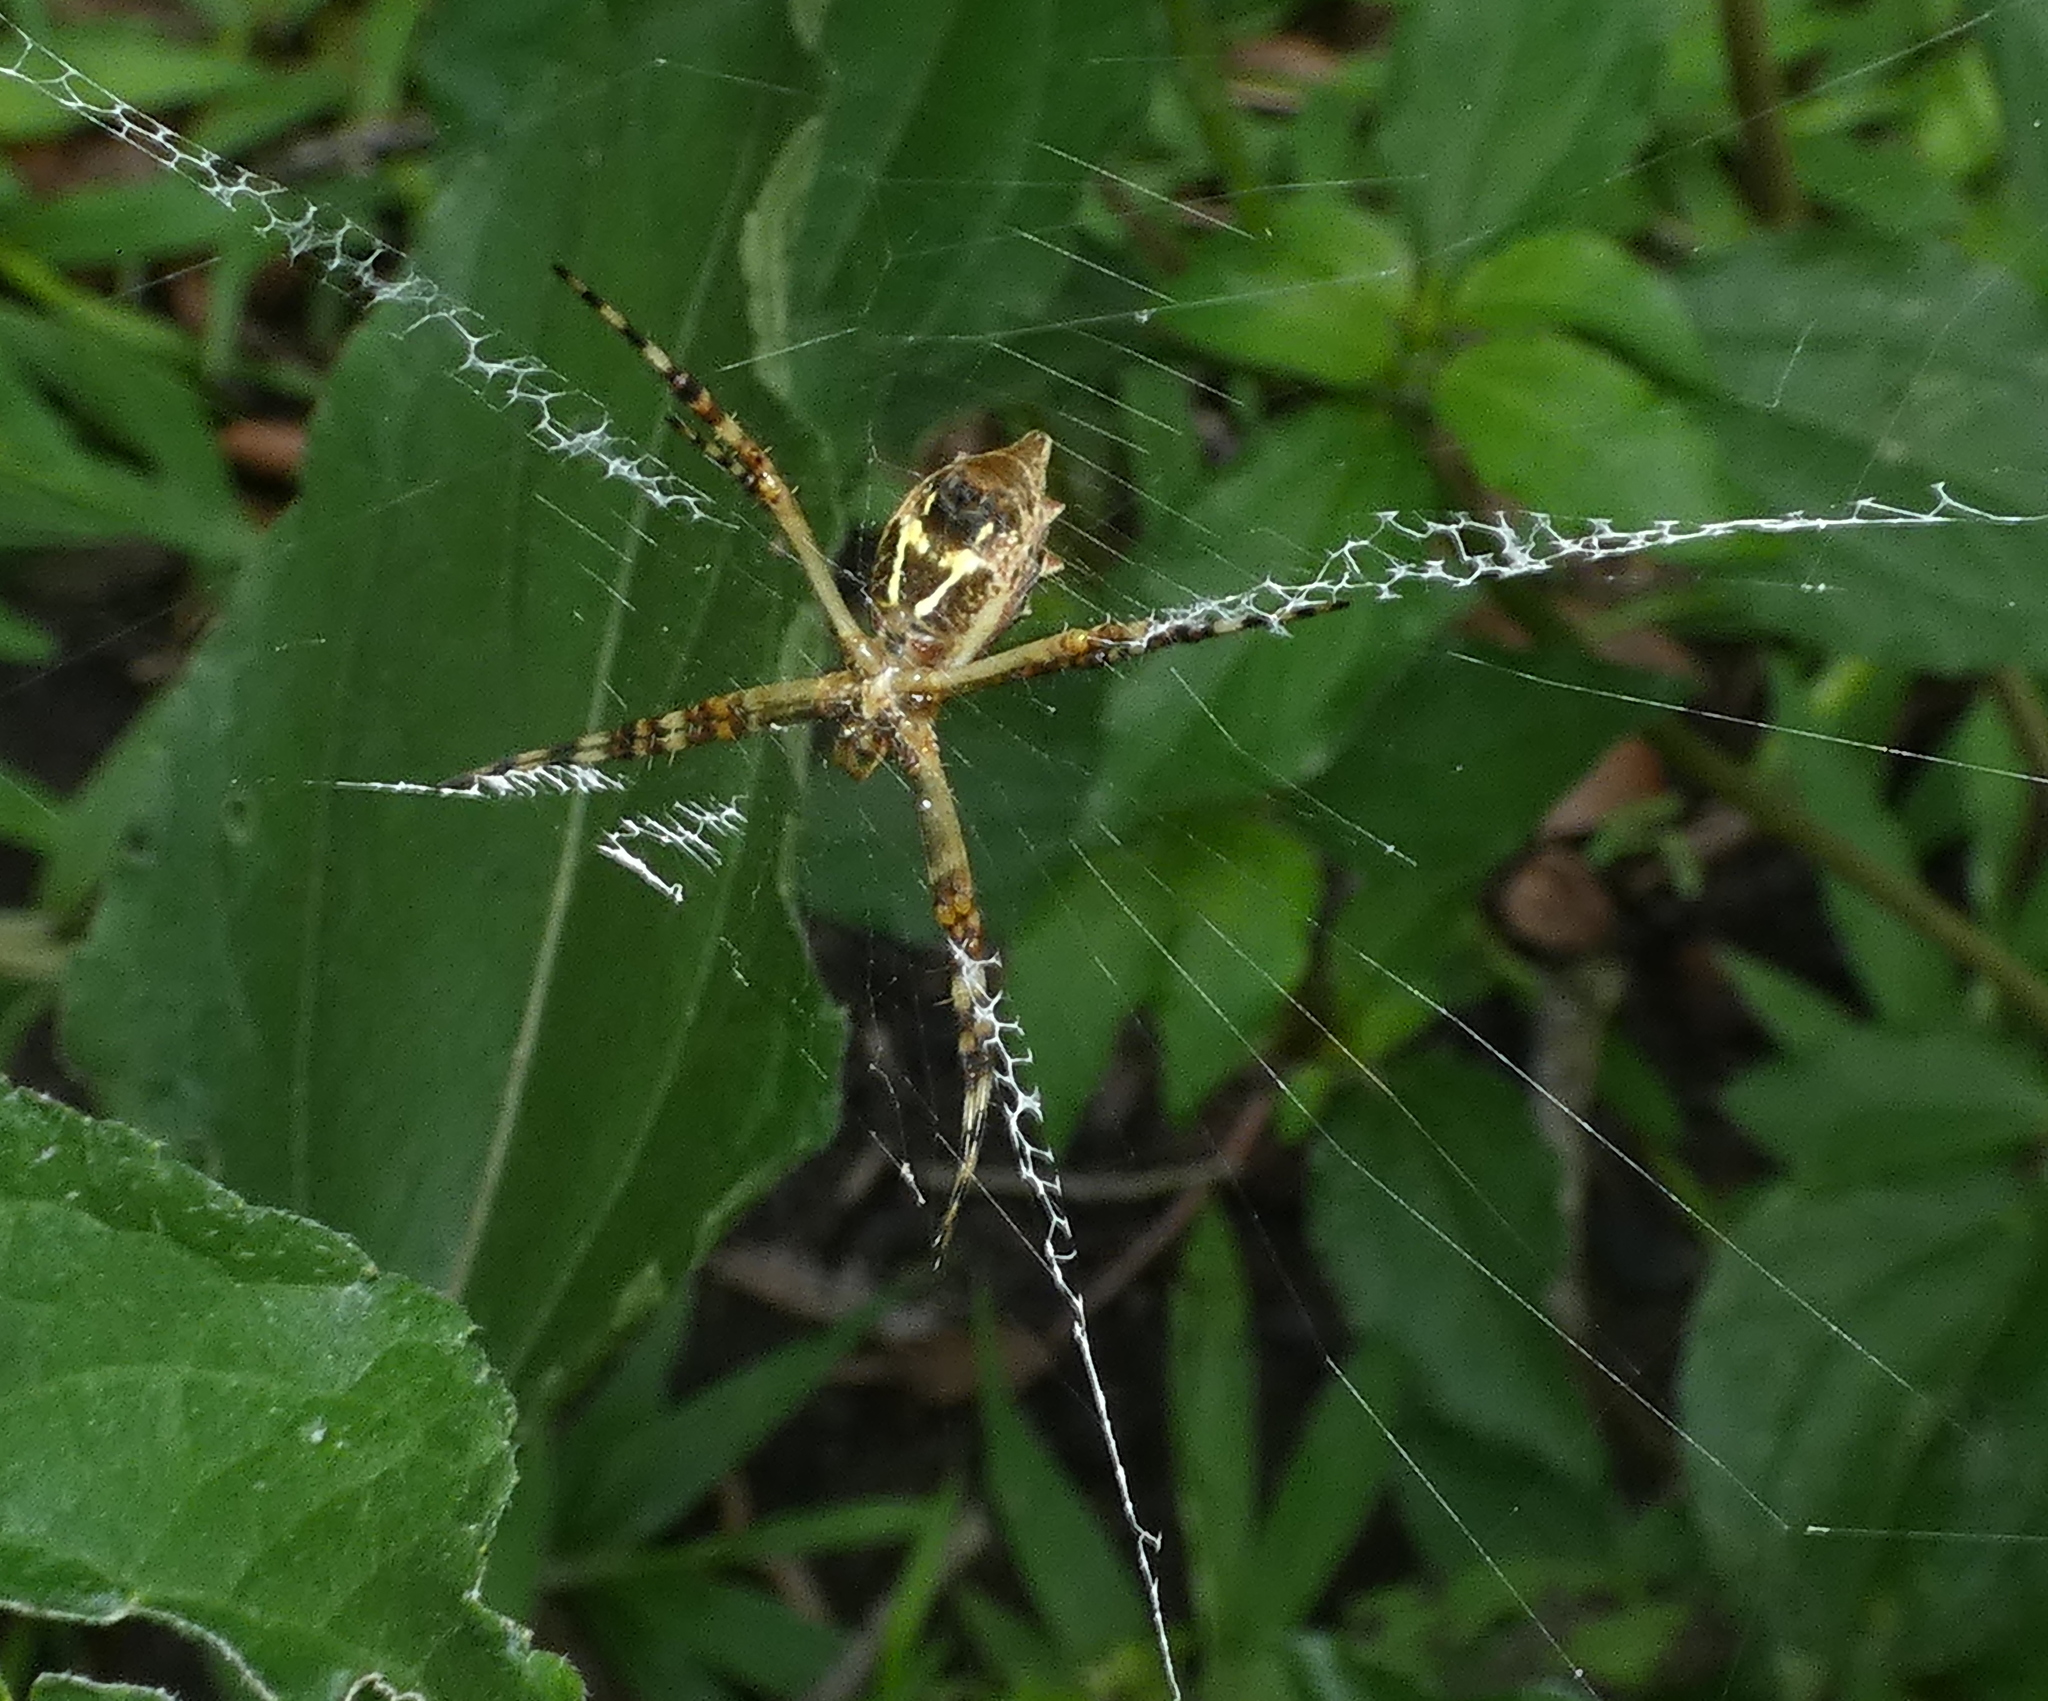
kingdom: Animalia
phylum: Arthropoda
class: Arachnida
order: Araneae
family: Araneidae
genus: Argiope
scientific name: Argiope argentata
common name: Orb weavers
